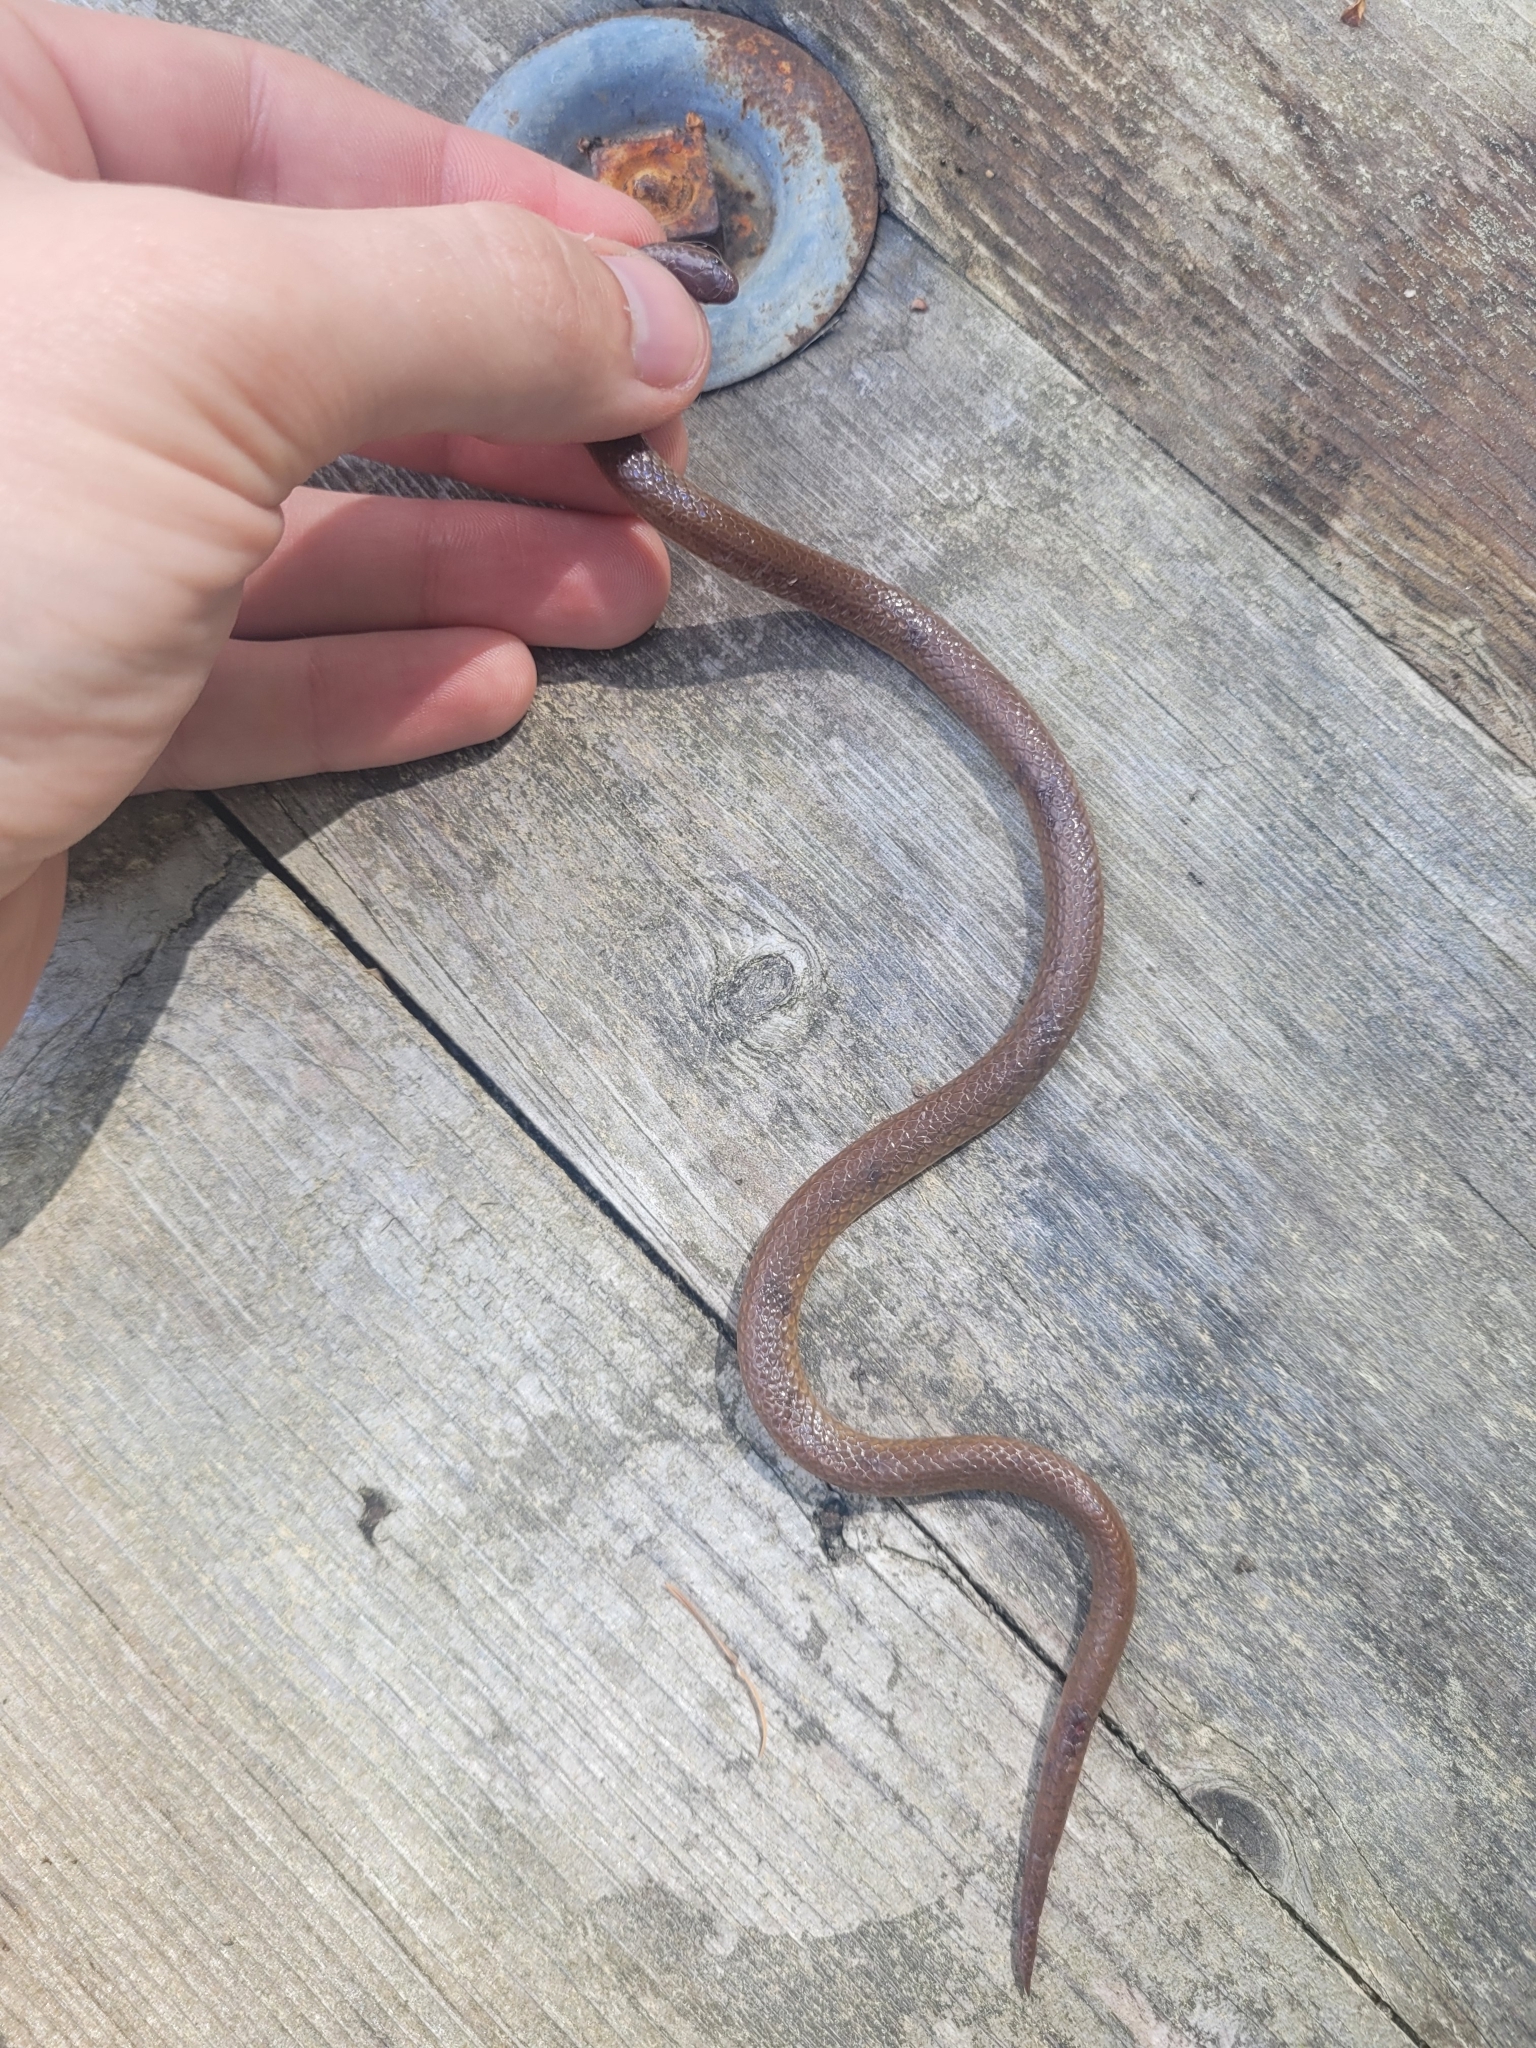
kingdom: Animalia
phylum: Chordata
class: Squamata
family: Colubridae
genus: Carphophis
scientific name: Carphophis amoenus
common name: Eastern worm snake
